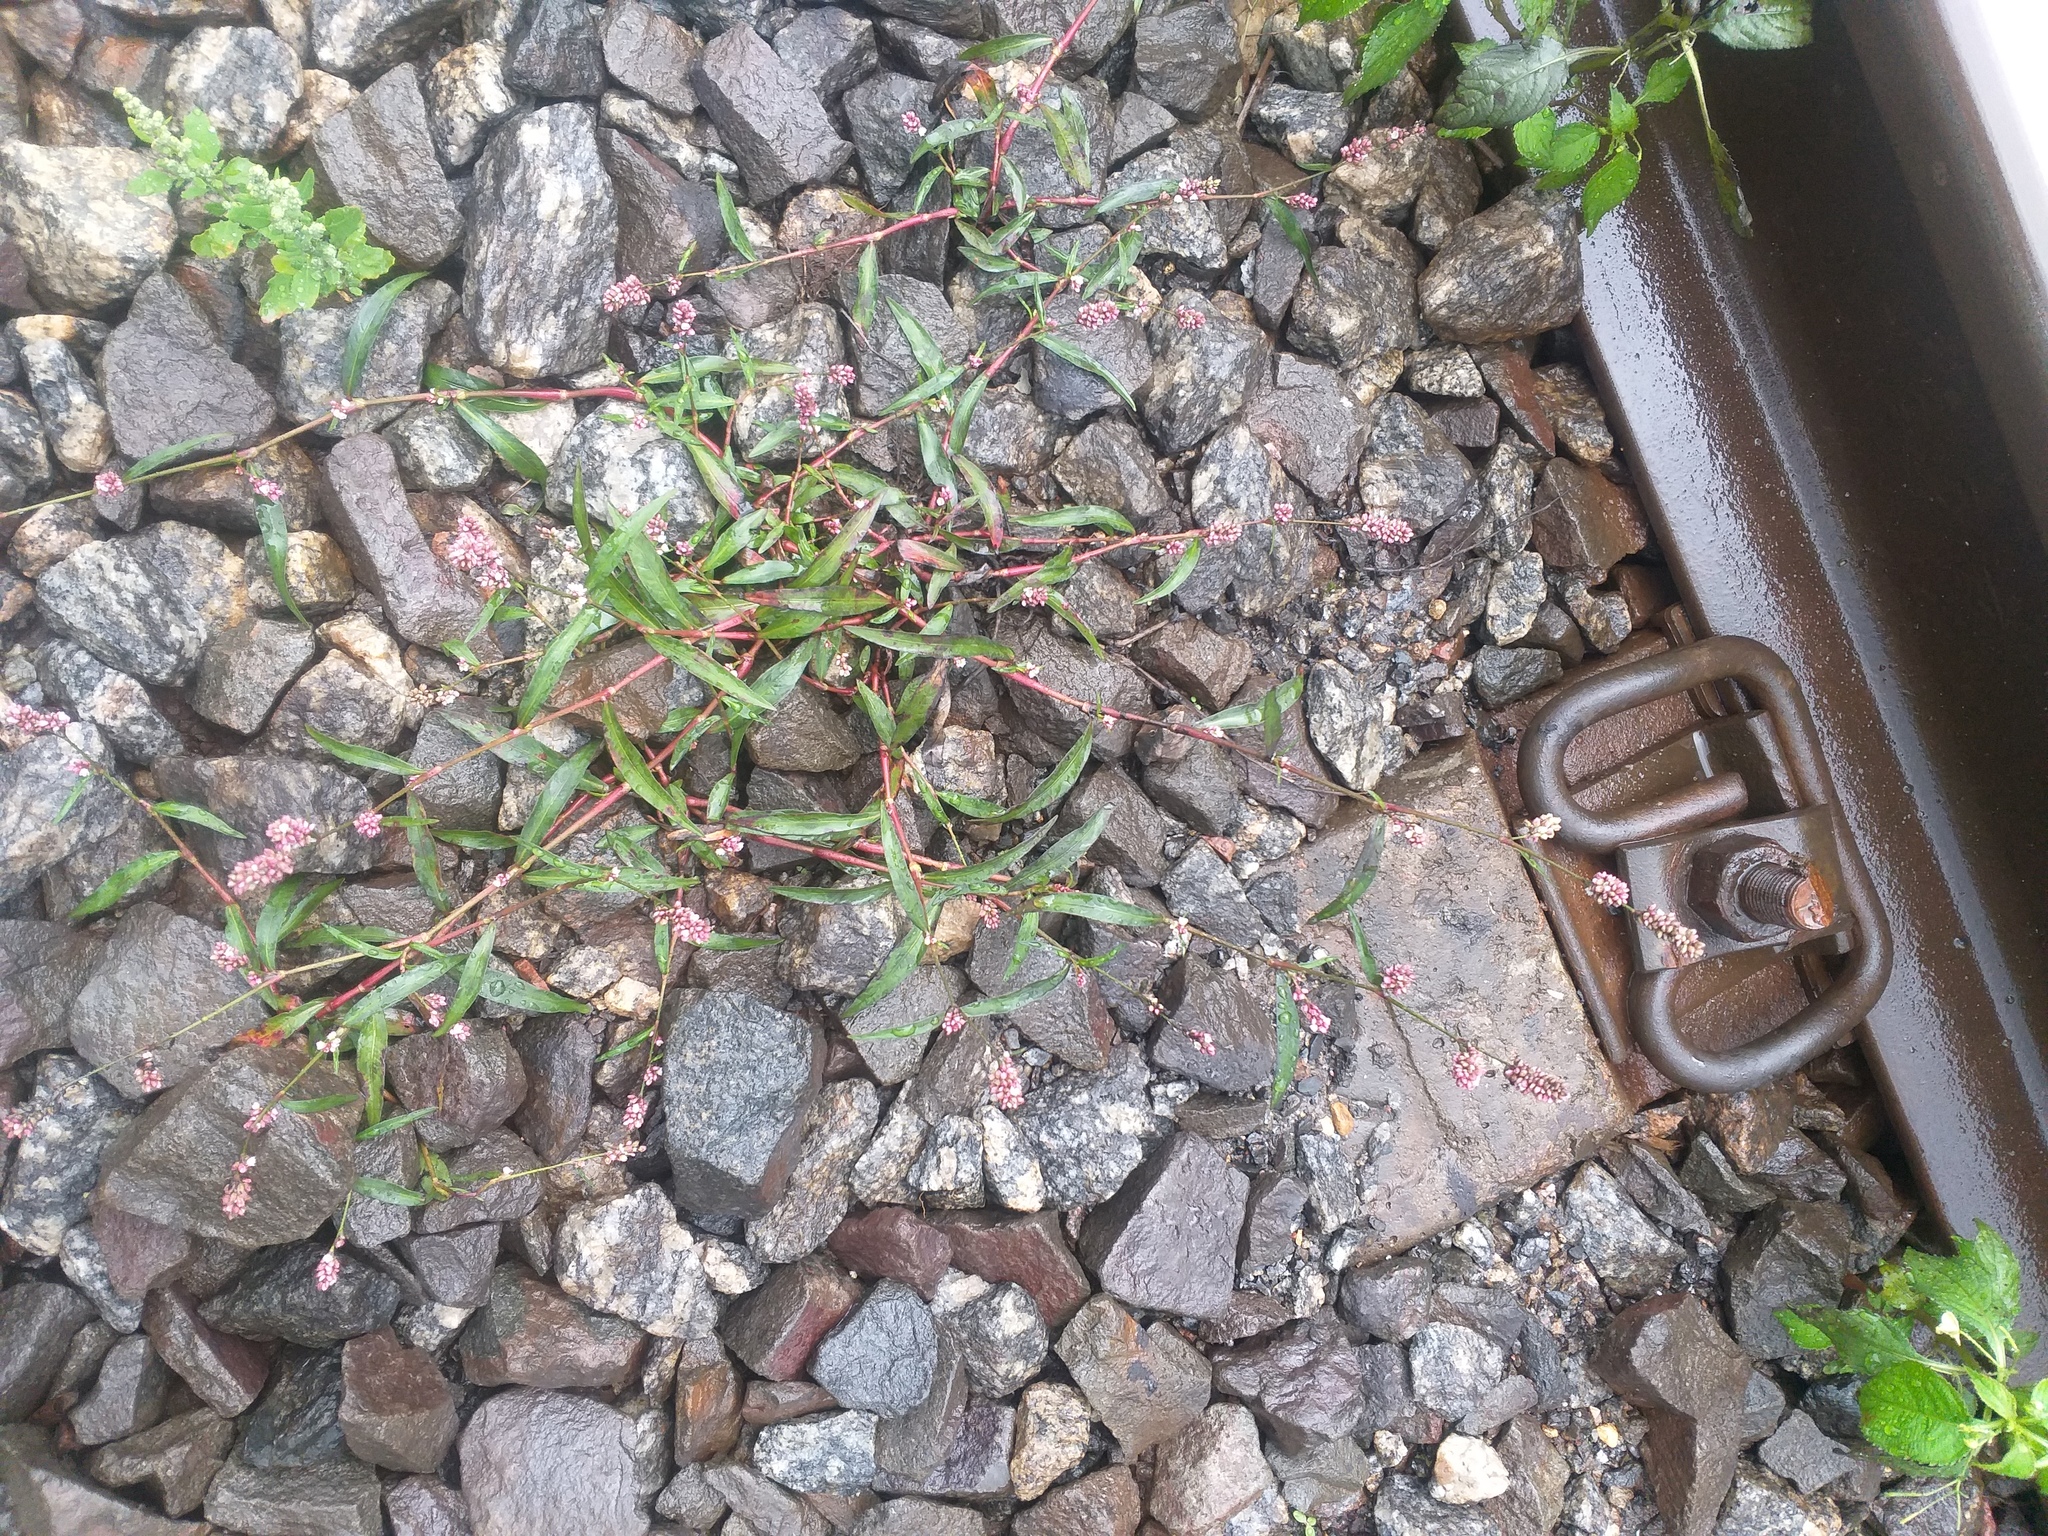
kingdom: Plantae
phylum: Tracheophyta
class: Magnoliopsida
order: Caryophyllales
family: Polygonaceae
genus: Persicaria
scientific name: Persicaria maculosa
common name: Redshank
